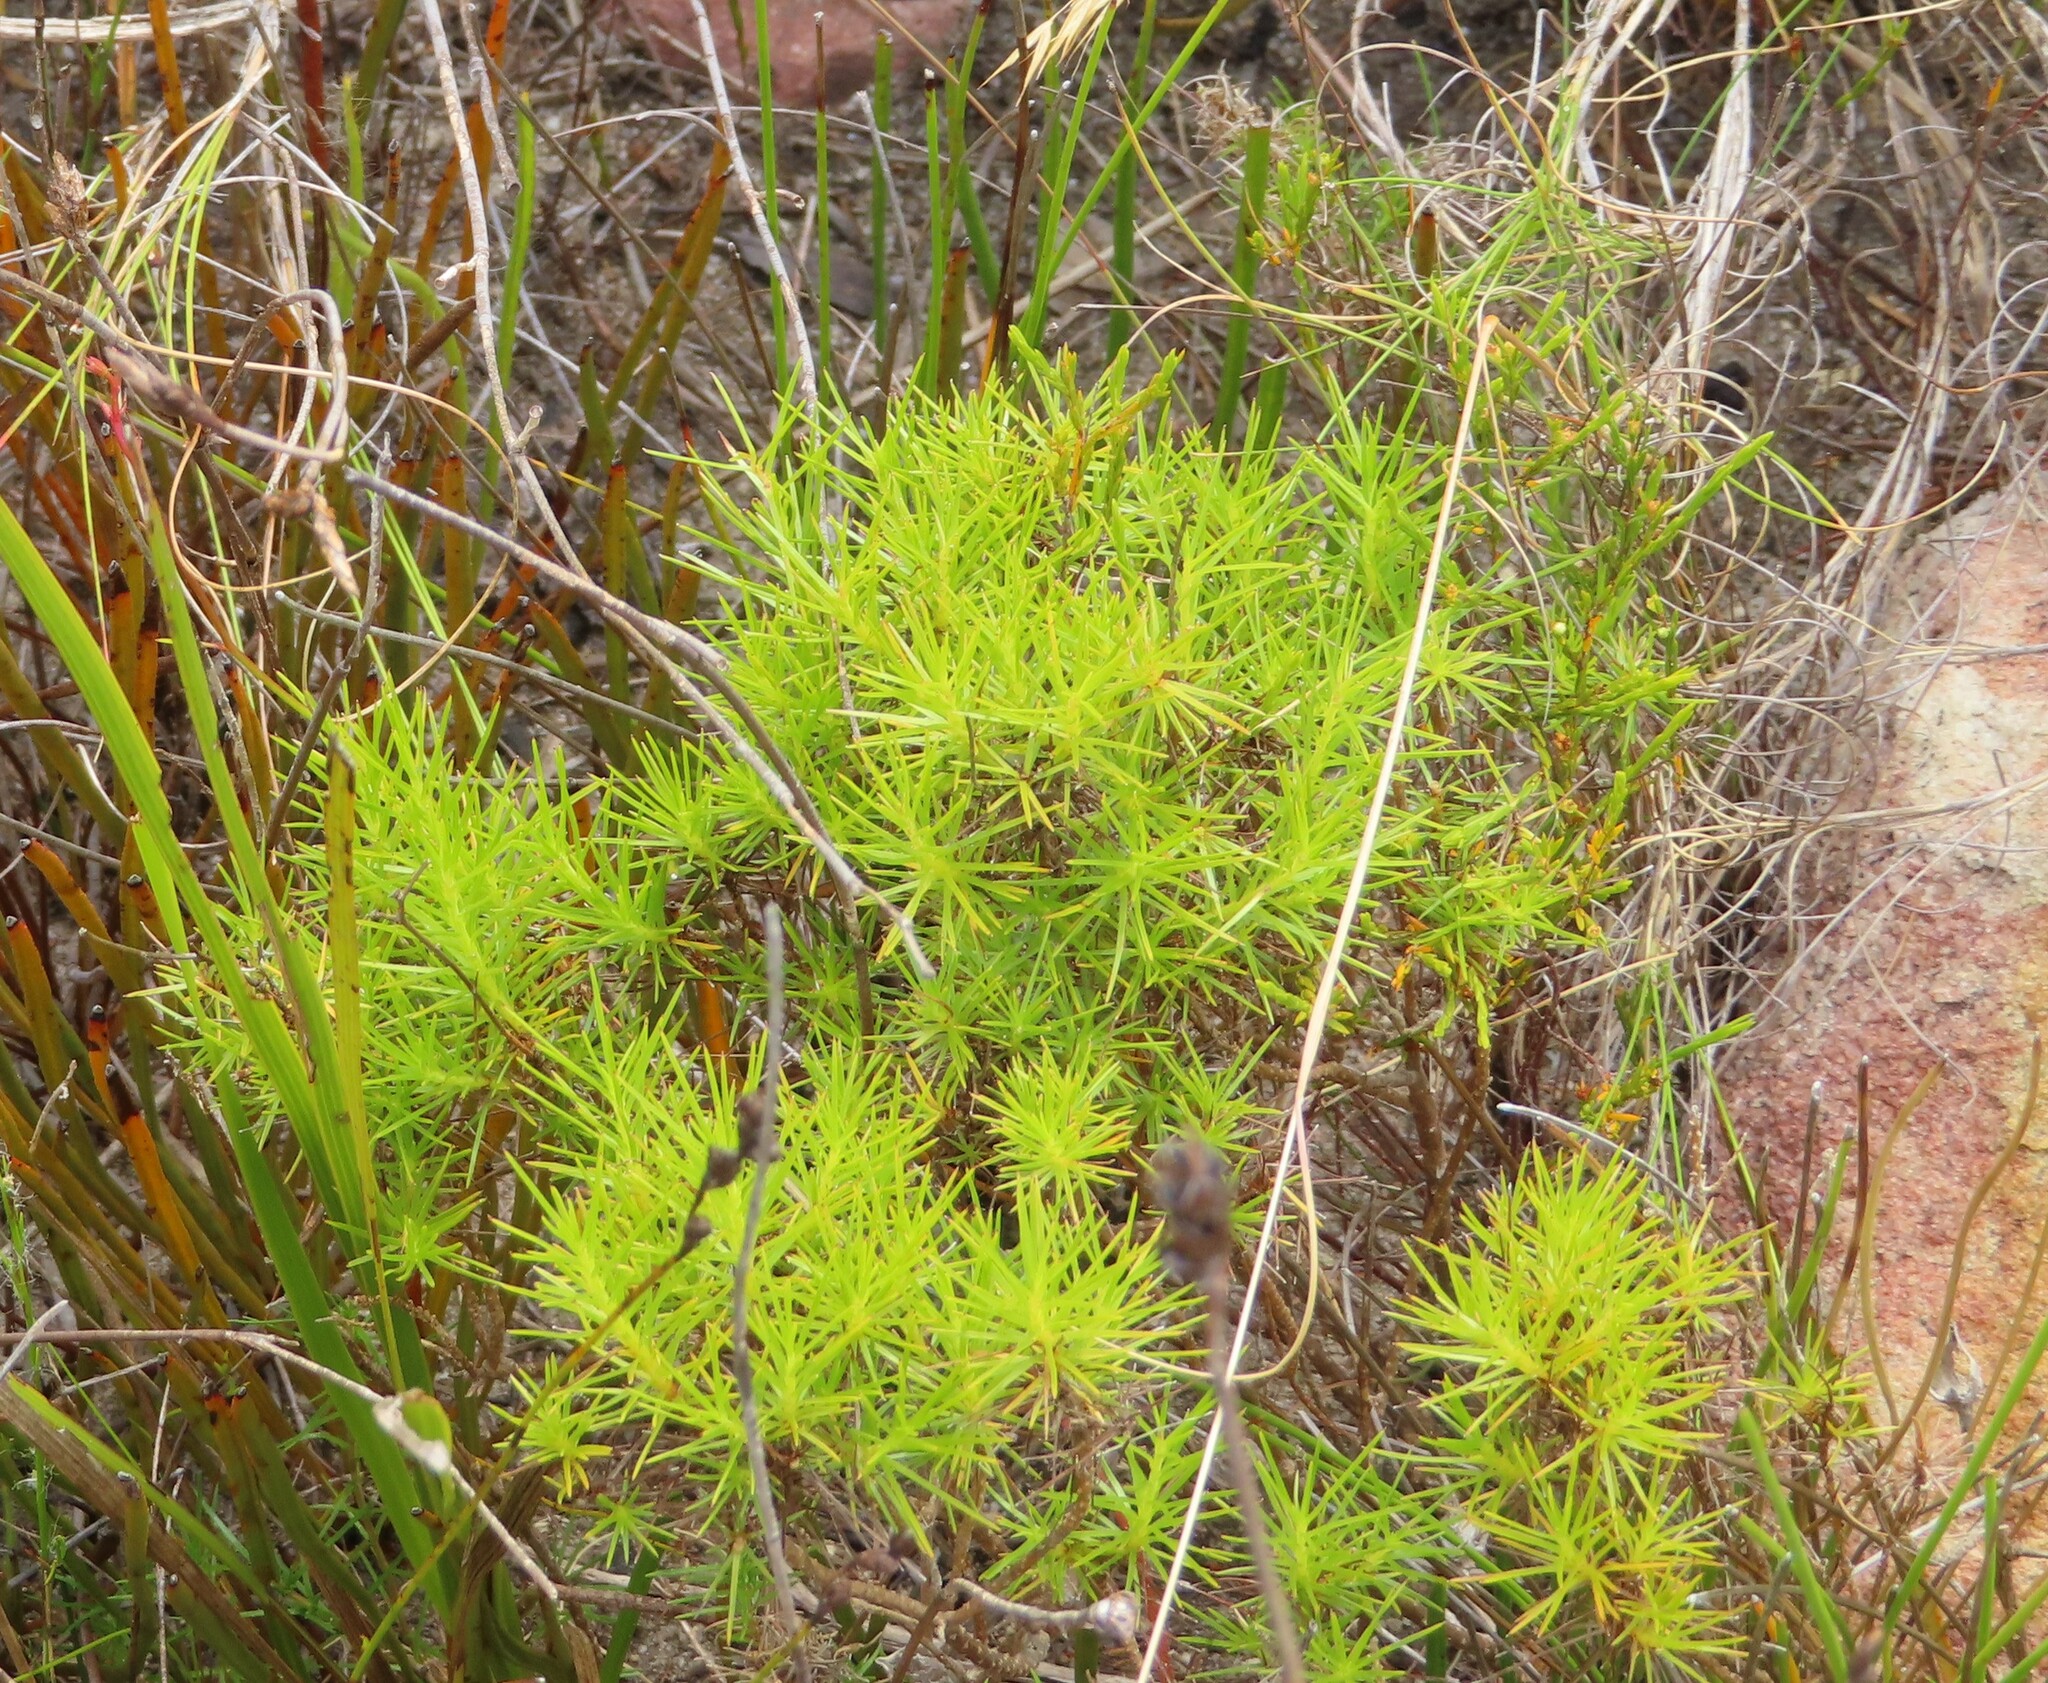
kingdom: Plantae
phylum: Tracheophyta
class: Magnoliopsida
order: Asterales
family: Campanulaceae
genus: Prismatocarpus
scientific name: Prismatocarpus diffusus
